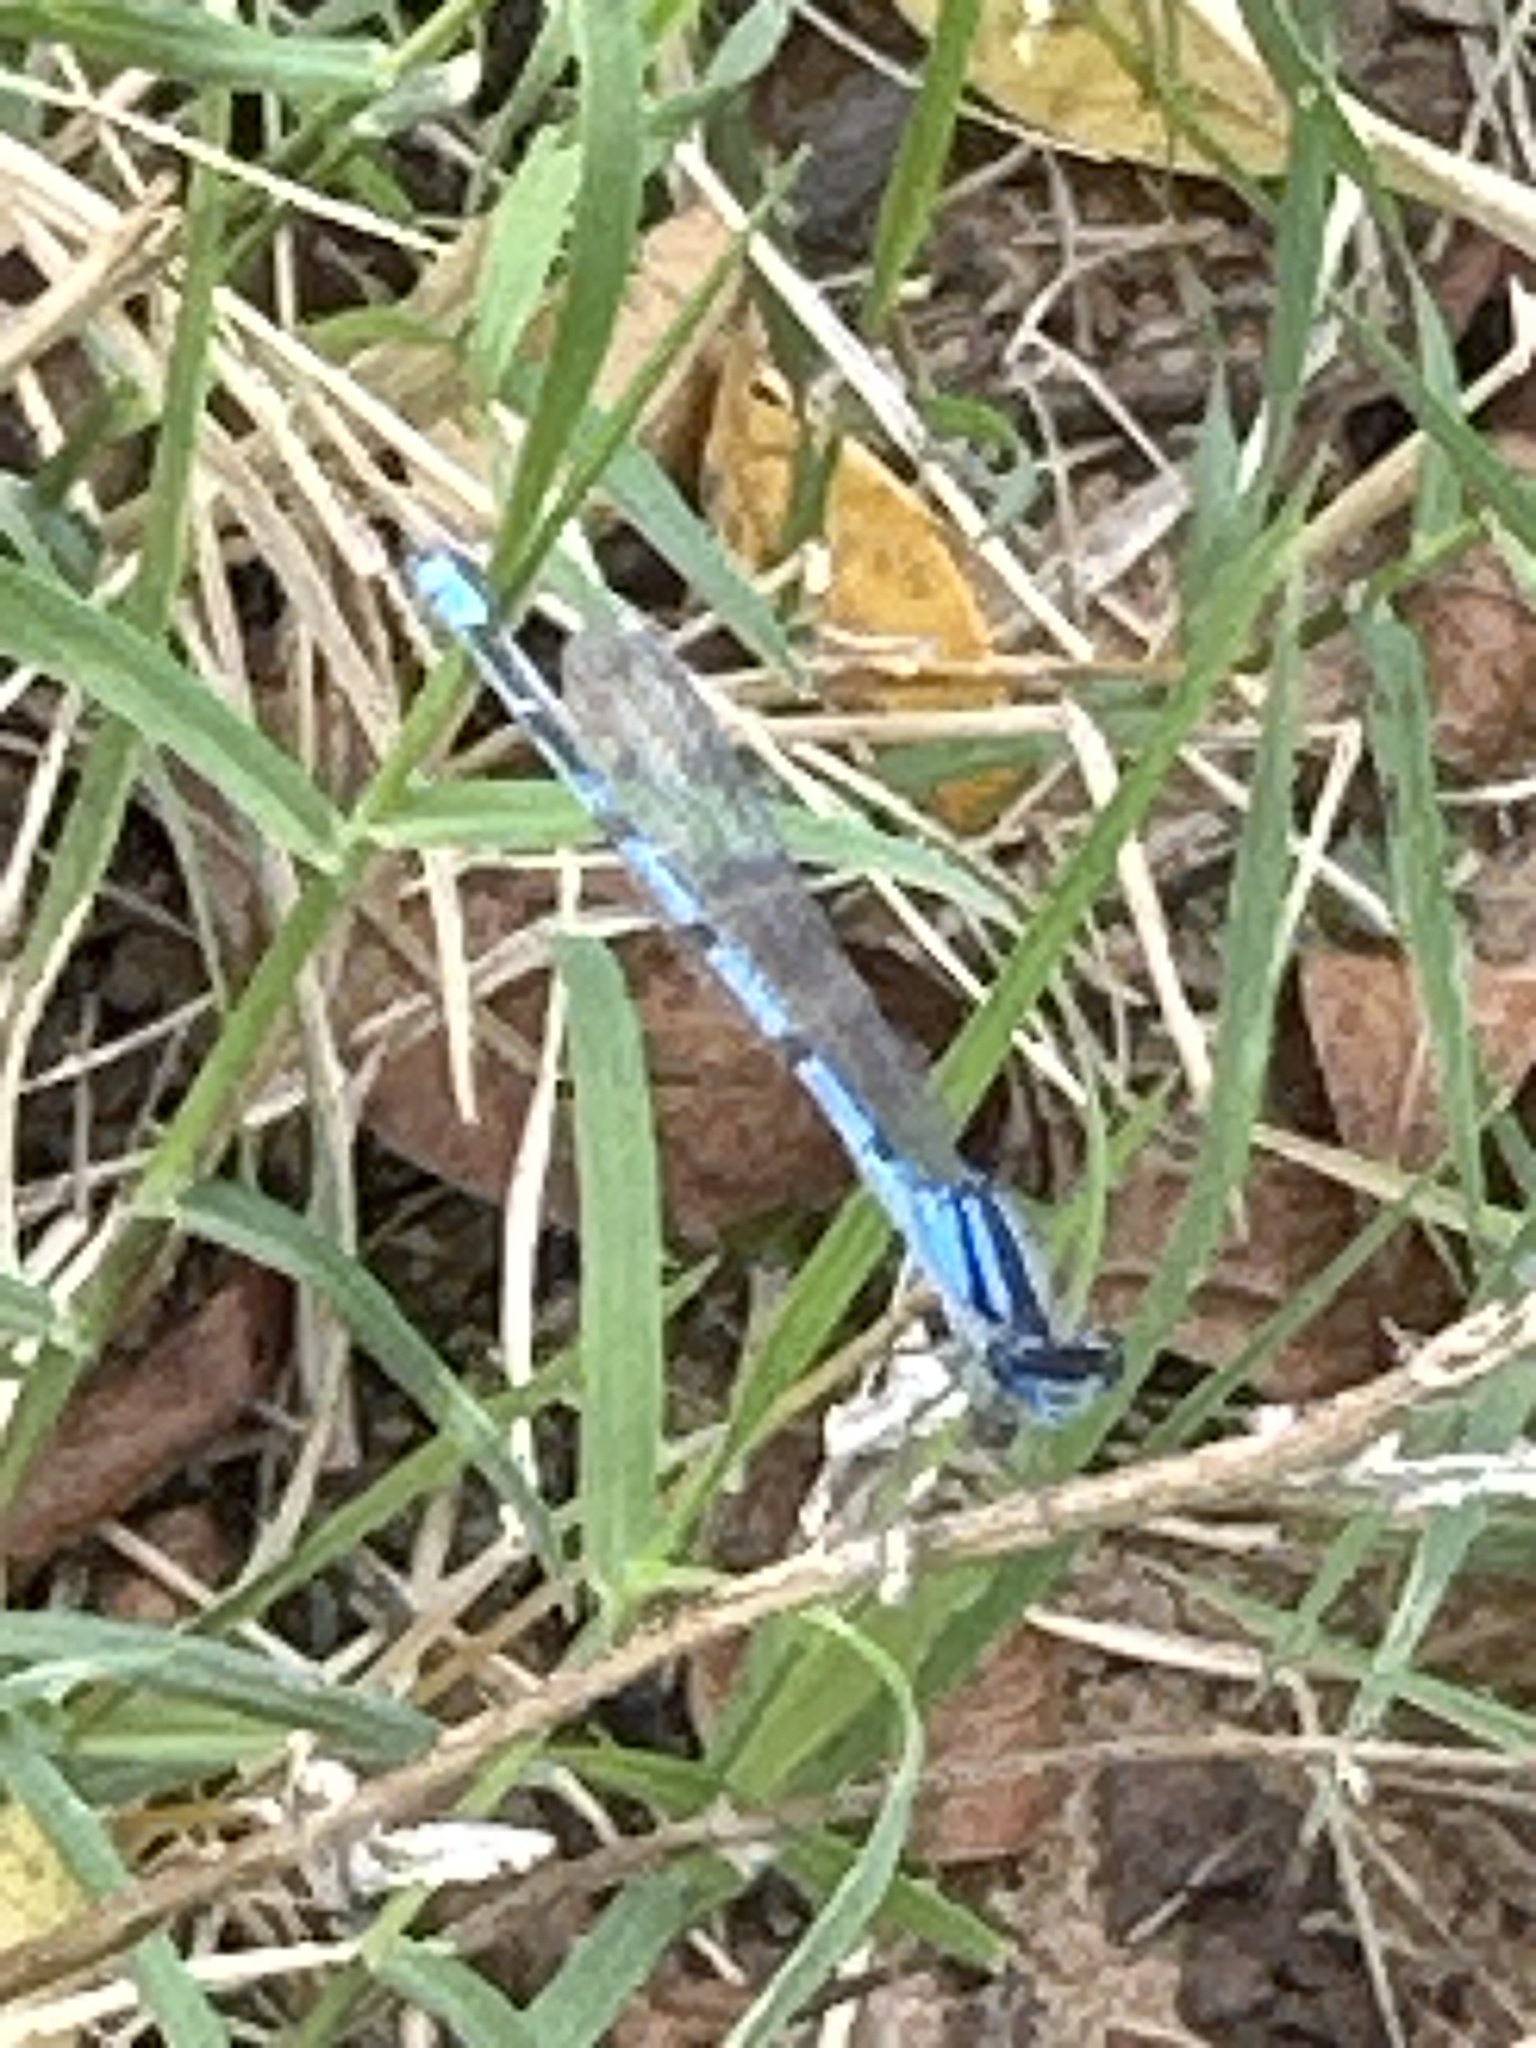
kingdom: Animalia
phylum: Arthropoda
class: Insecta
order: Odonata
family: Coenagrionidae
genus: Enallagma
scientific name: Enallagma civile
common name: Damselfly
